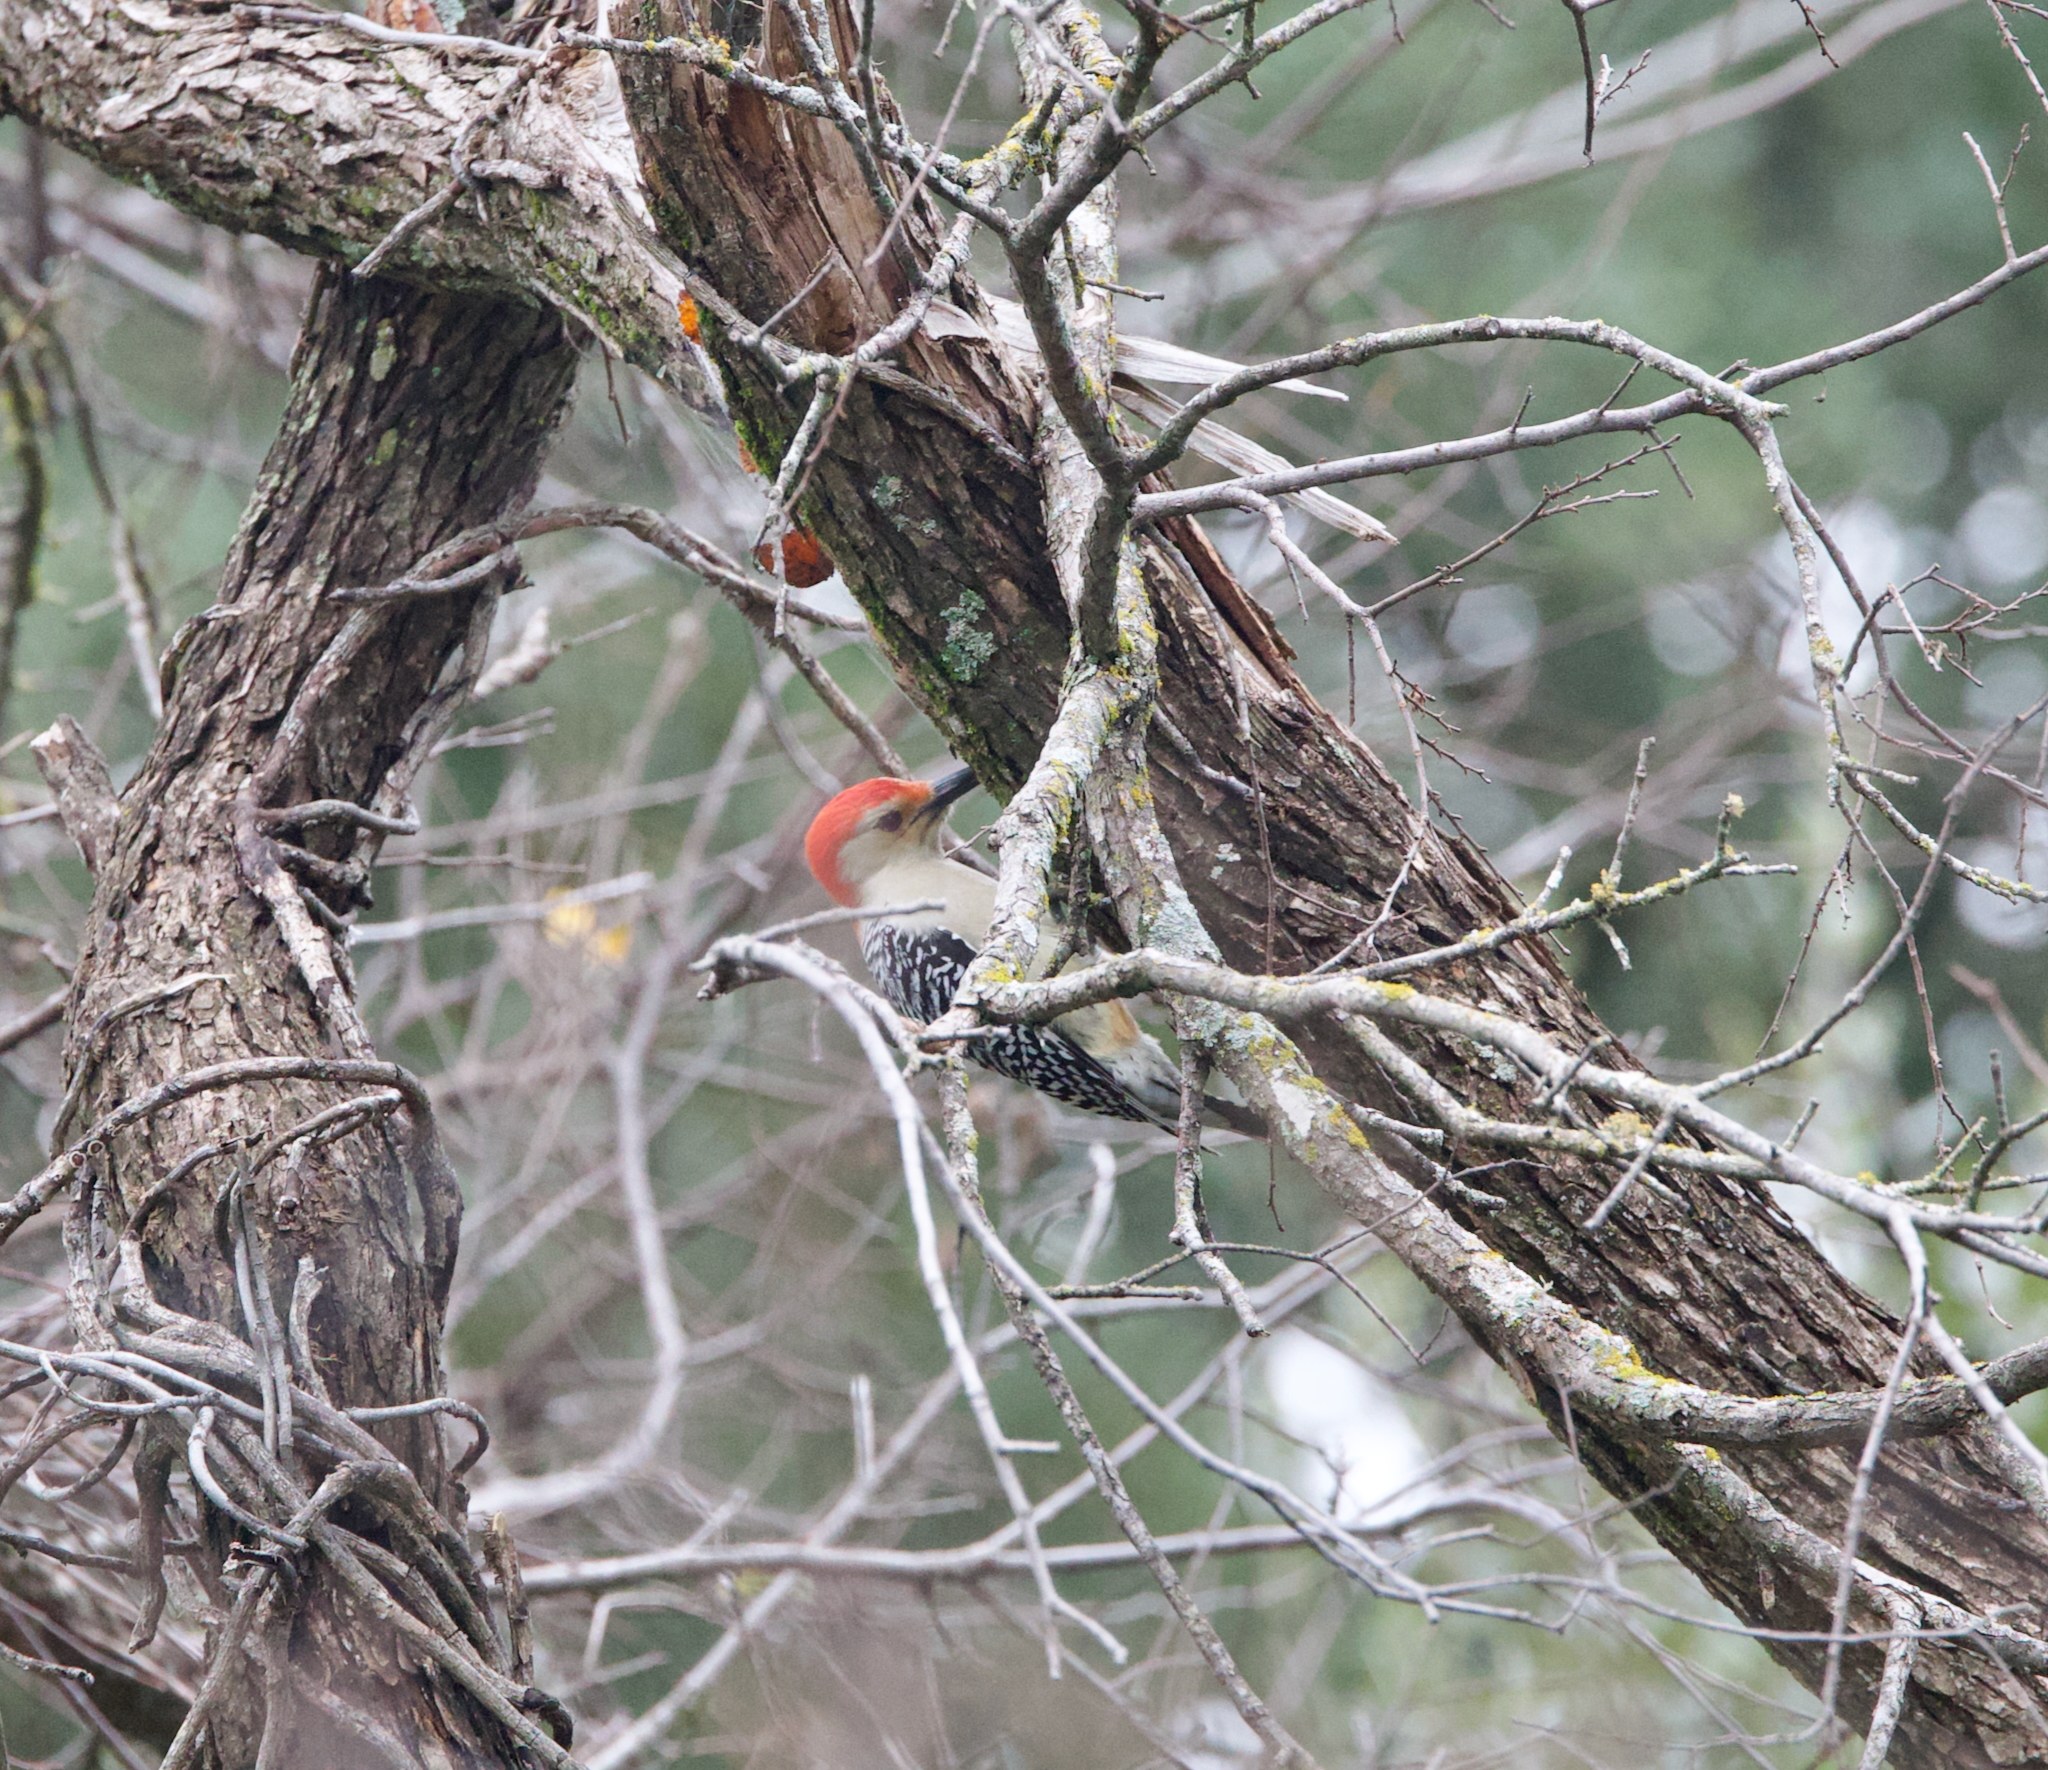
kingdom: Animalia
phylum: Chordata
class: Aves
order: Piciformes
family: Picidae
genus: Melanerpes
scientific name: Melanerpes carolinus
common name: Red-bellied woodpecker
